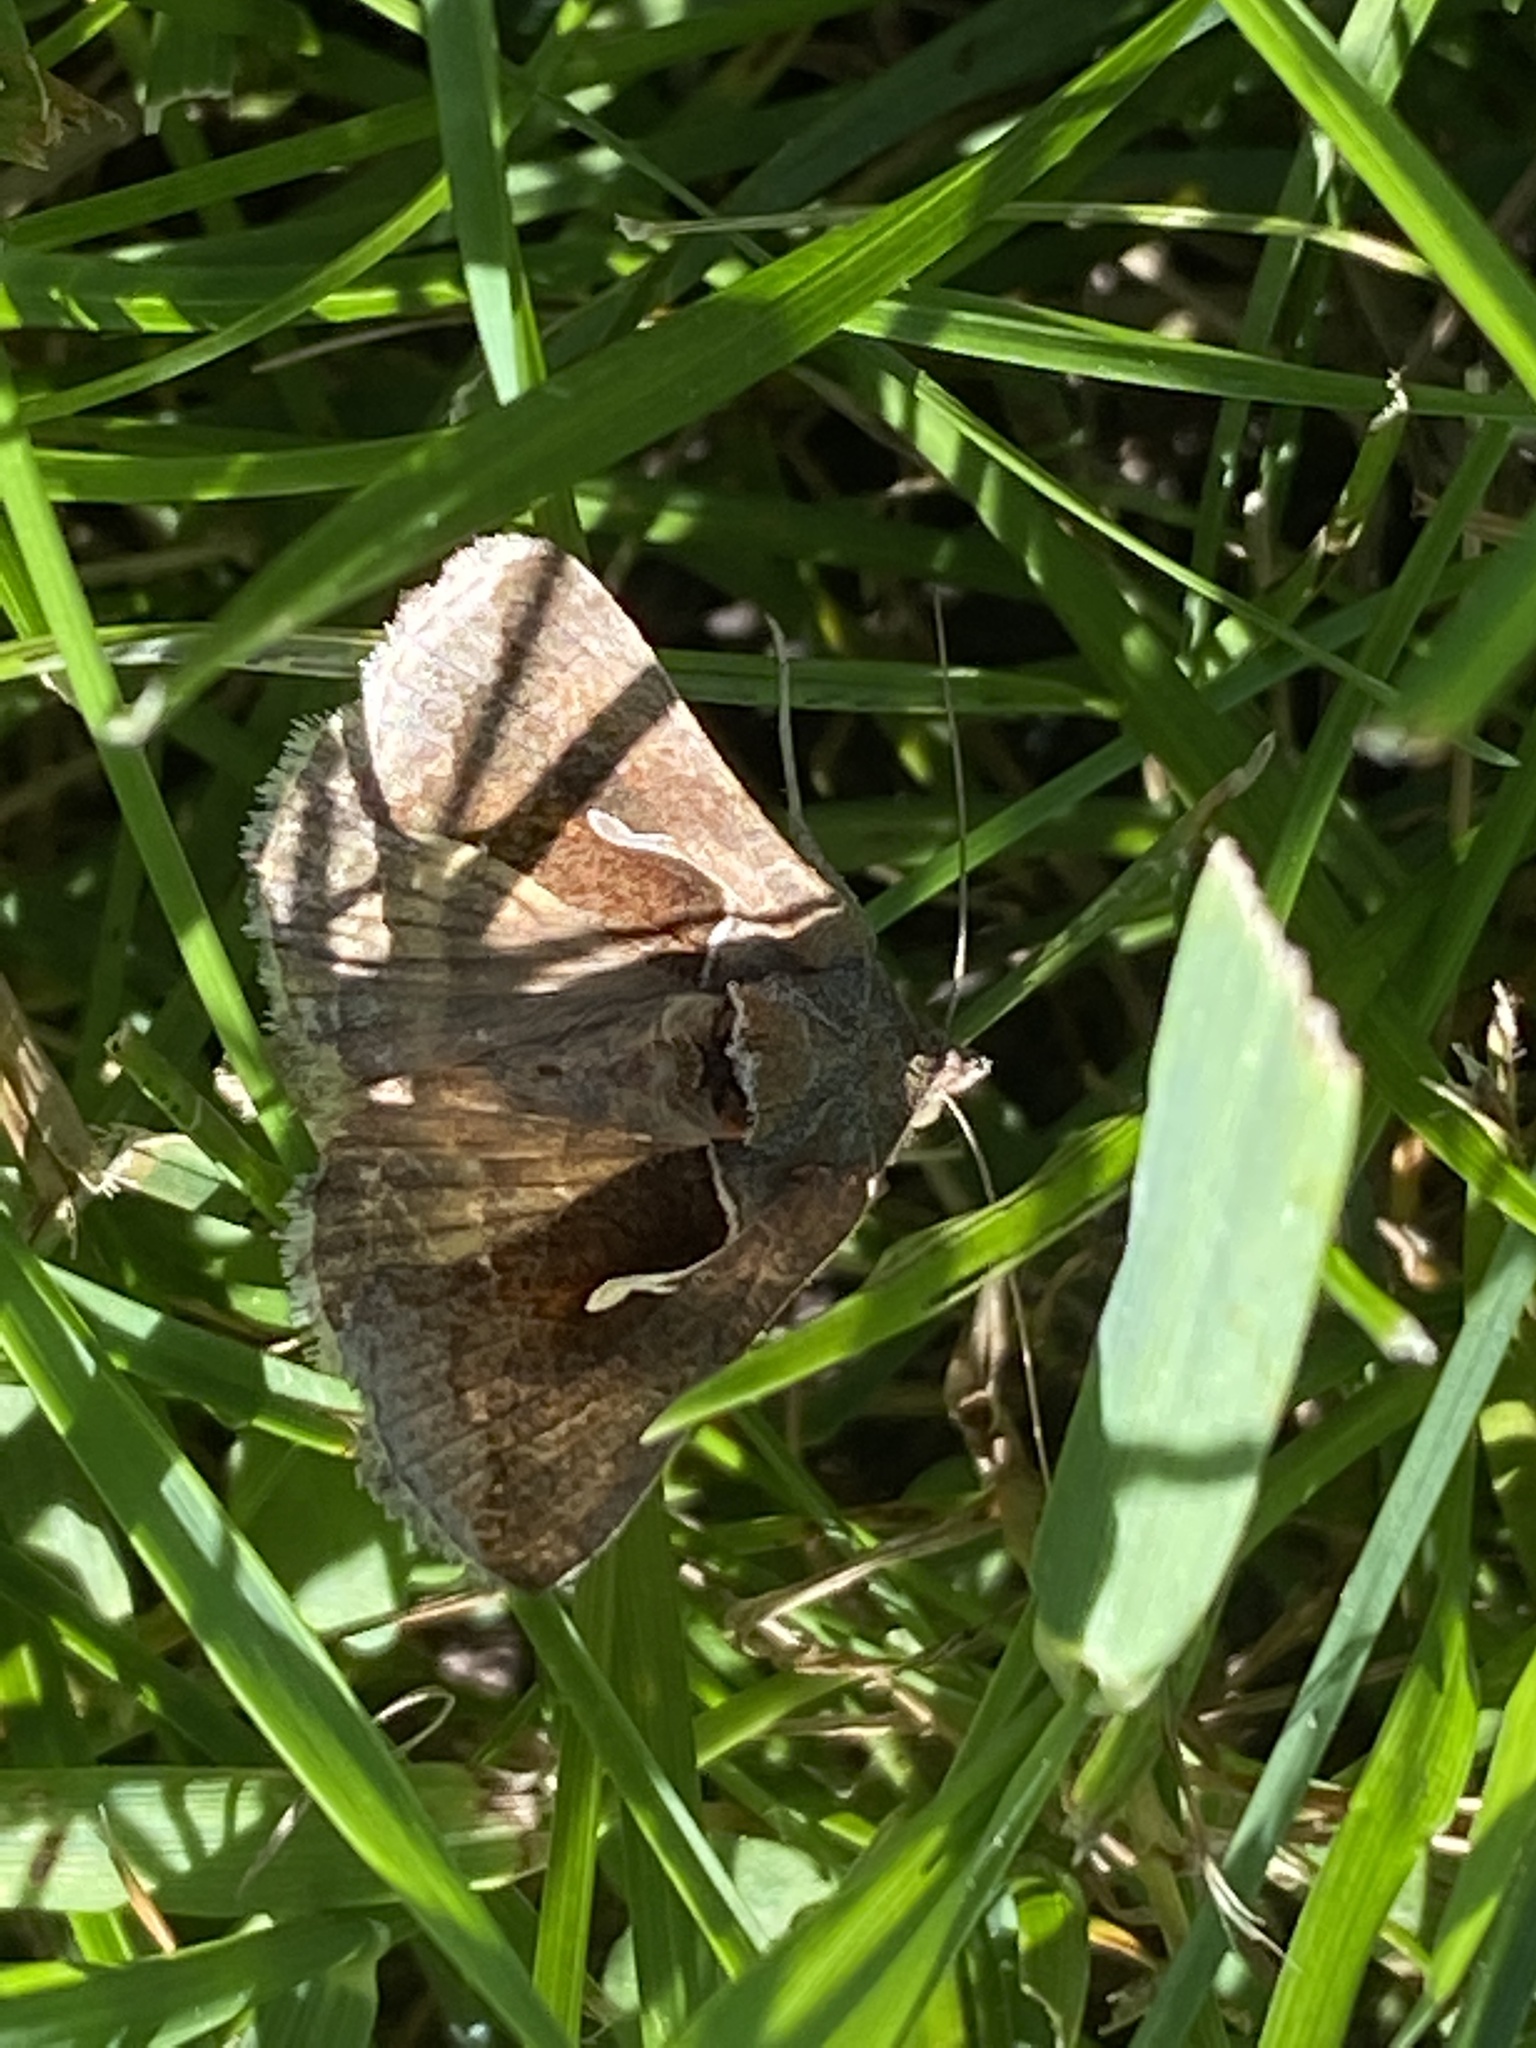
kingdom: Animalia
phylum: Arthropoda
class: Insecta
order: Lepidoptera
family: Noctuidae
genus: Anagrapha
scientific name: Anagrapha falcifera
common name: Celery looper
